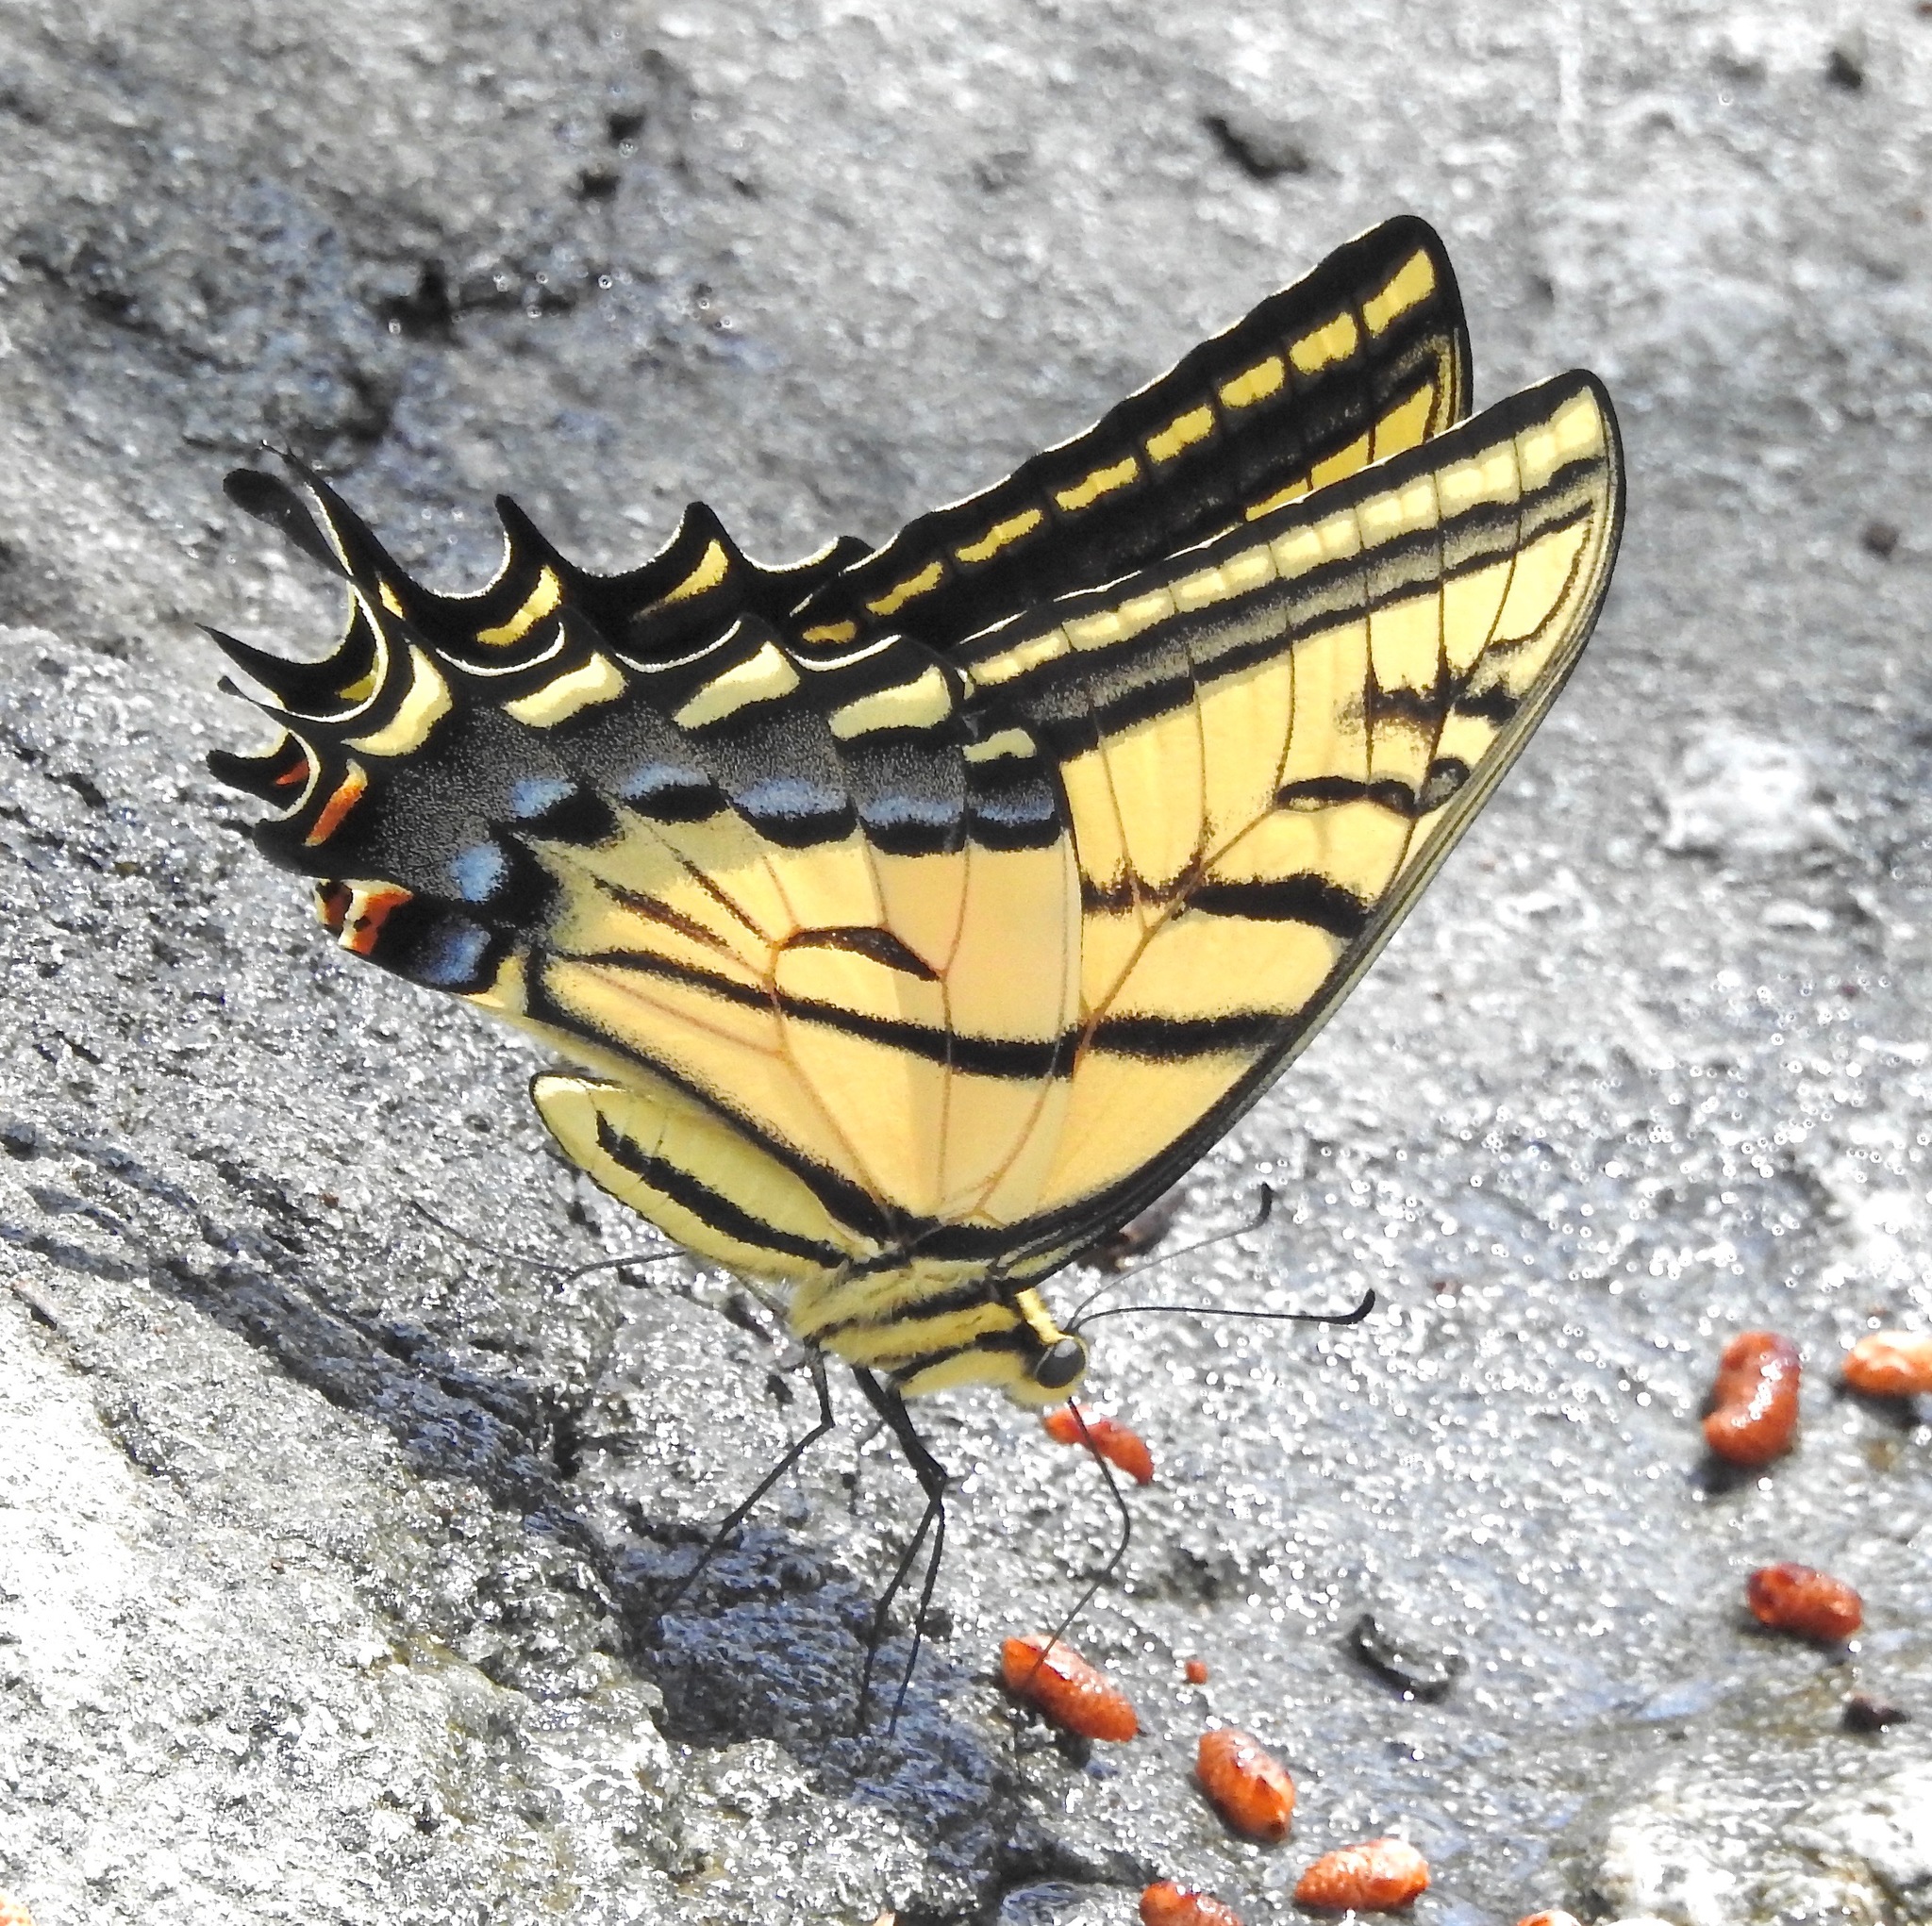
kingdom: Animalia
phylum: Arthropoda
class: Insecta
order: Lepidoptera
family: Papilionidae
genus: Papilio
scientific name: Papilio multicaudata
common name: Two-tailed tiger swallowtail
